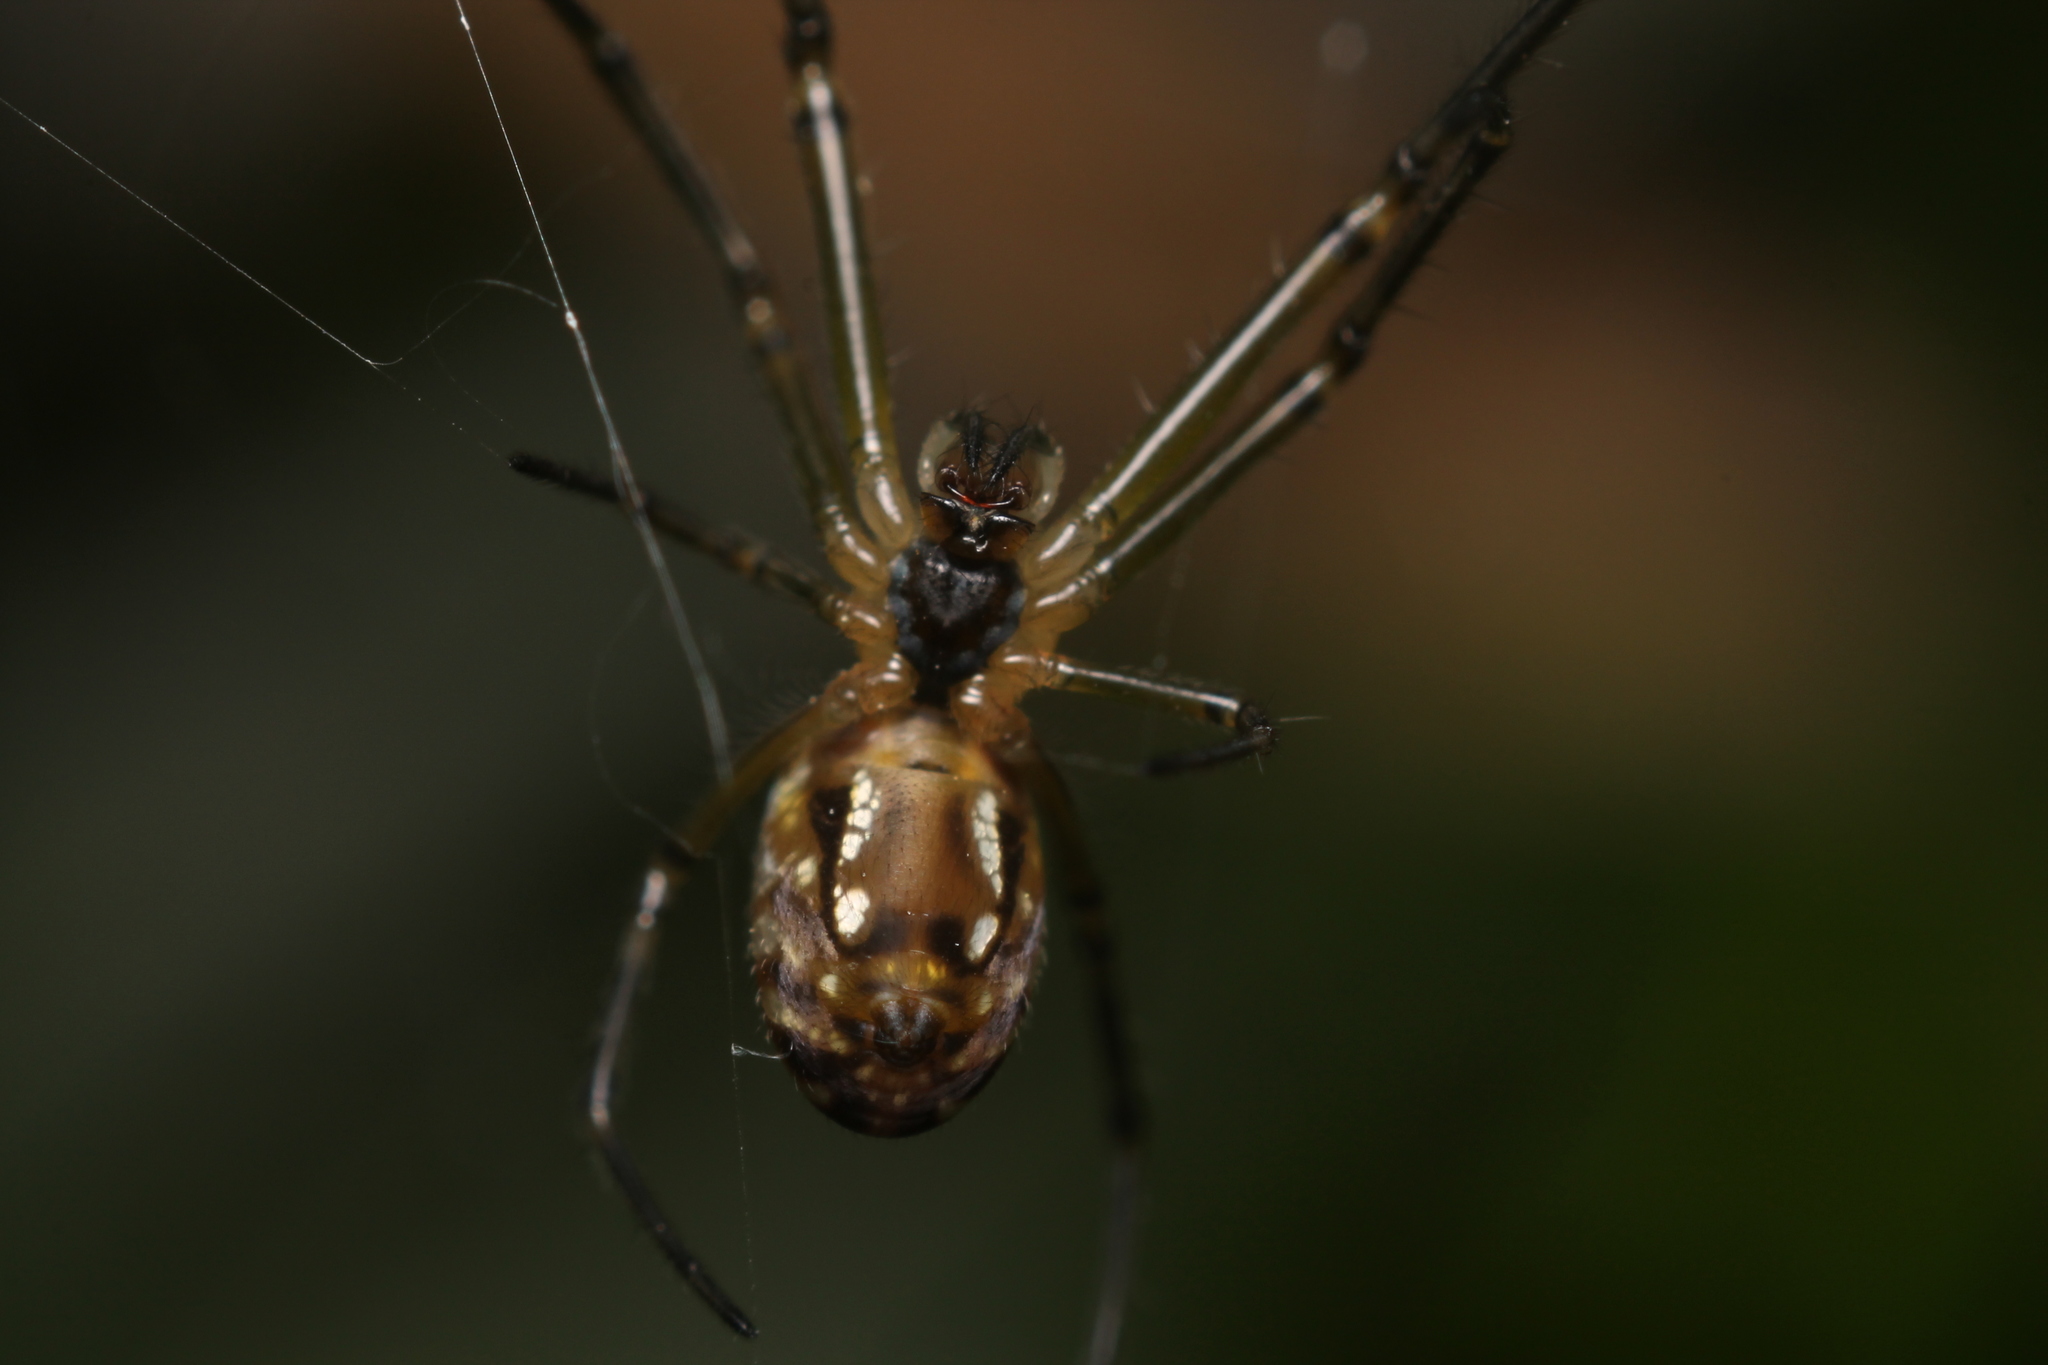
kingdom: Animalia
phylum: Arthropoda
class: Arachnida
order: Araneae
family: Tetragnathidae
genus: Leucauge
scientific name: Leucauge dromedaria
